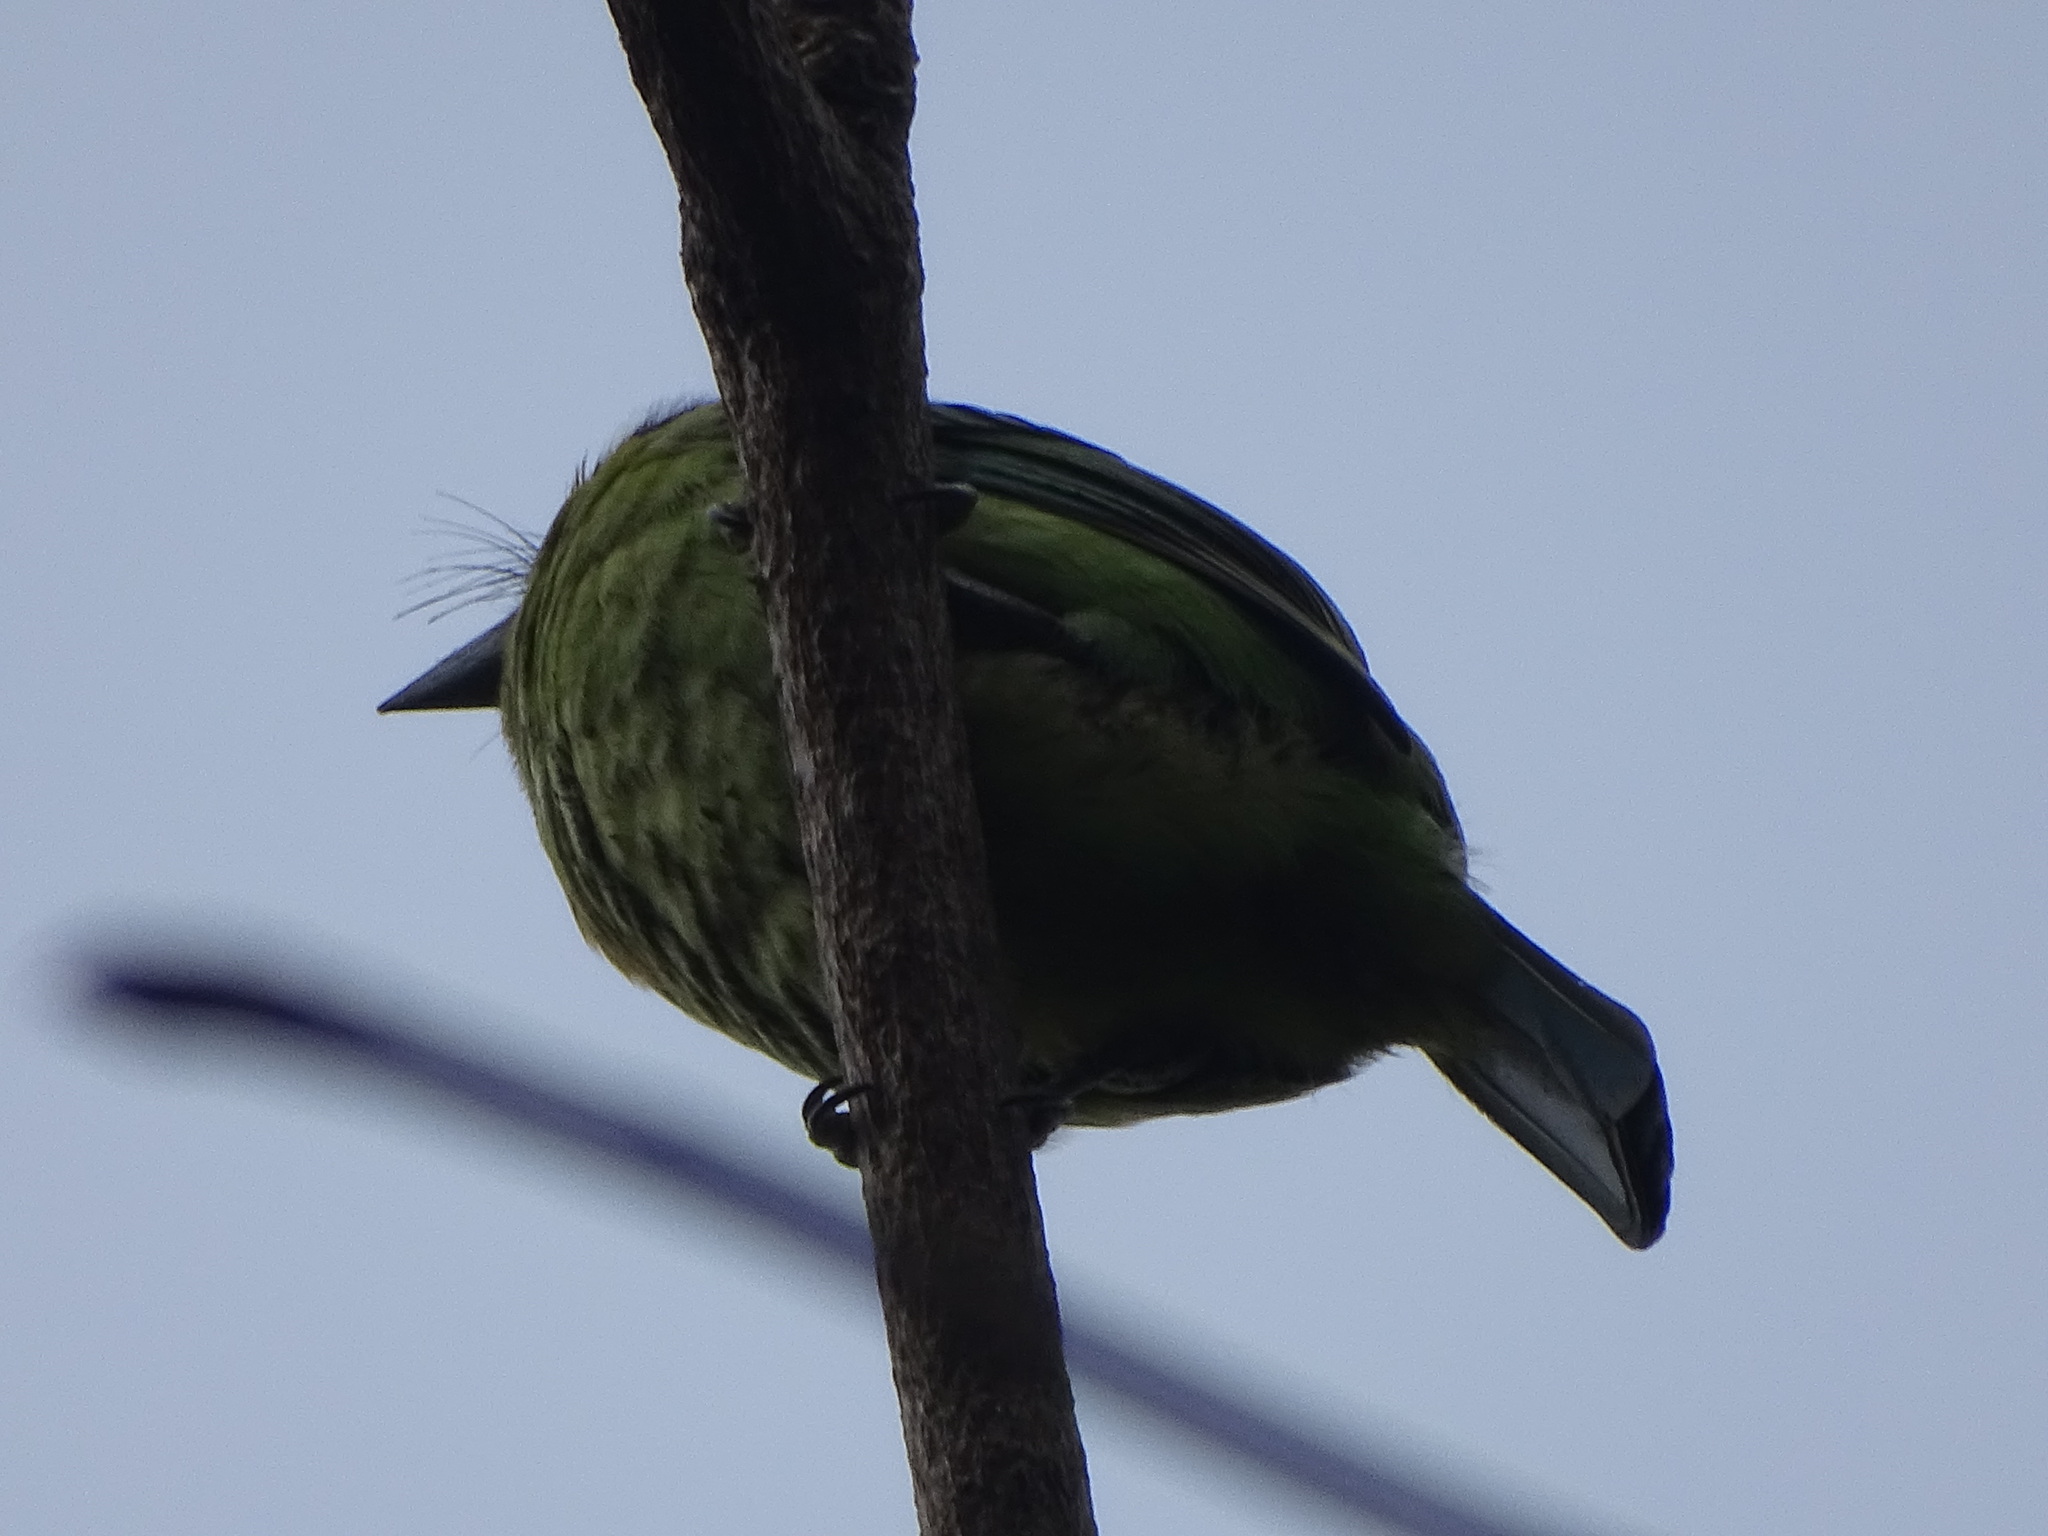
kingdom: Animalia
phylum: Chordata
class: Aves
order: Piciformes
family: Megalaimidae
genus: Psilopogon
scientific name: Psilopogon nuchalis
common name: Taiwan barbet
